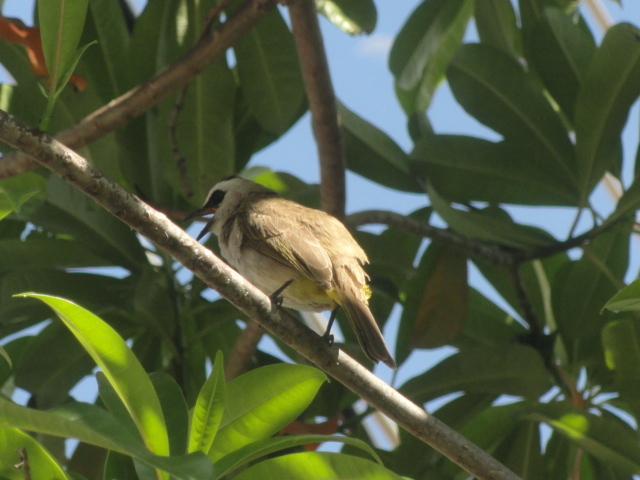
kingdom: Animalia
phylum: Chordata
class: Aves
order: Passeriformes
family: Pycnonotidae
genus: Pycnonotus
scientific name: Pycnonotus goiavier
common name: Yellow-vented bulbul
